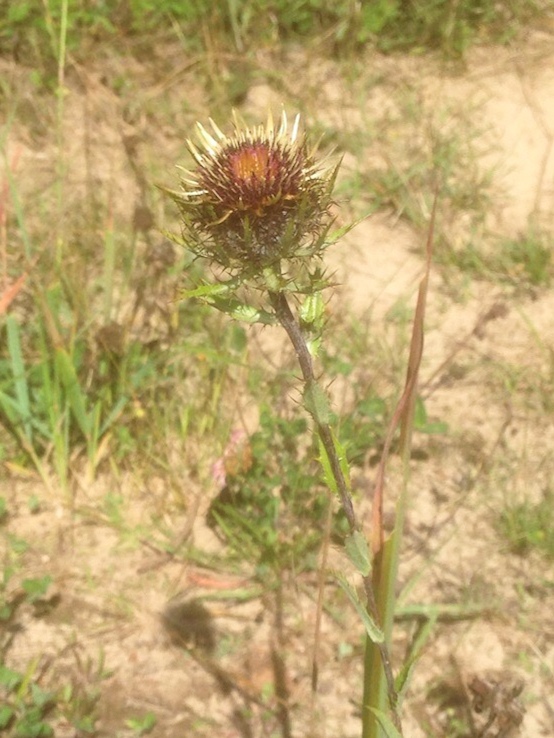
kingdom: Plantae
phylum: Tracheophyta
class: Magnoliopsida
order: Asterales
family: Asteraceae
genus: Carlina
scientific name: Carlina biebersteinii
